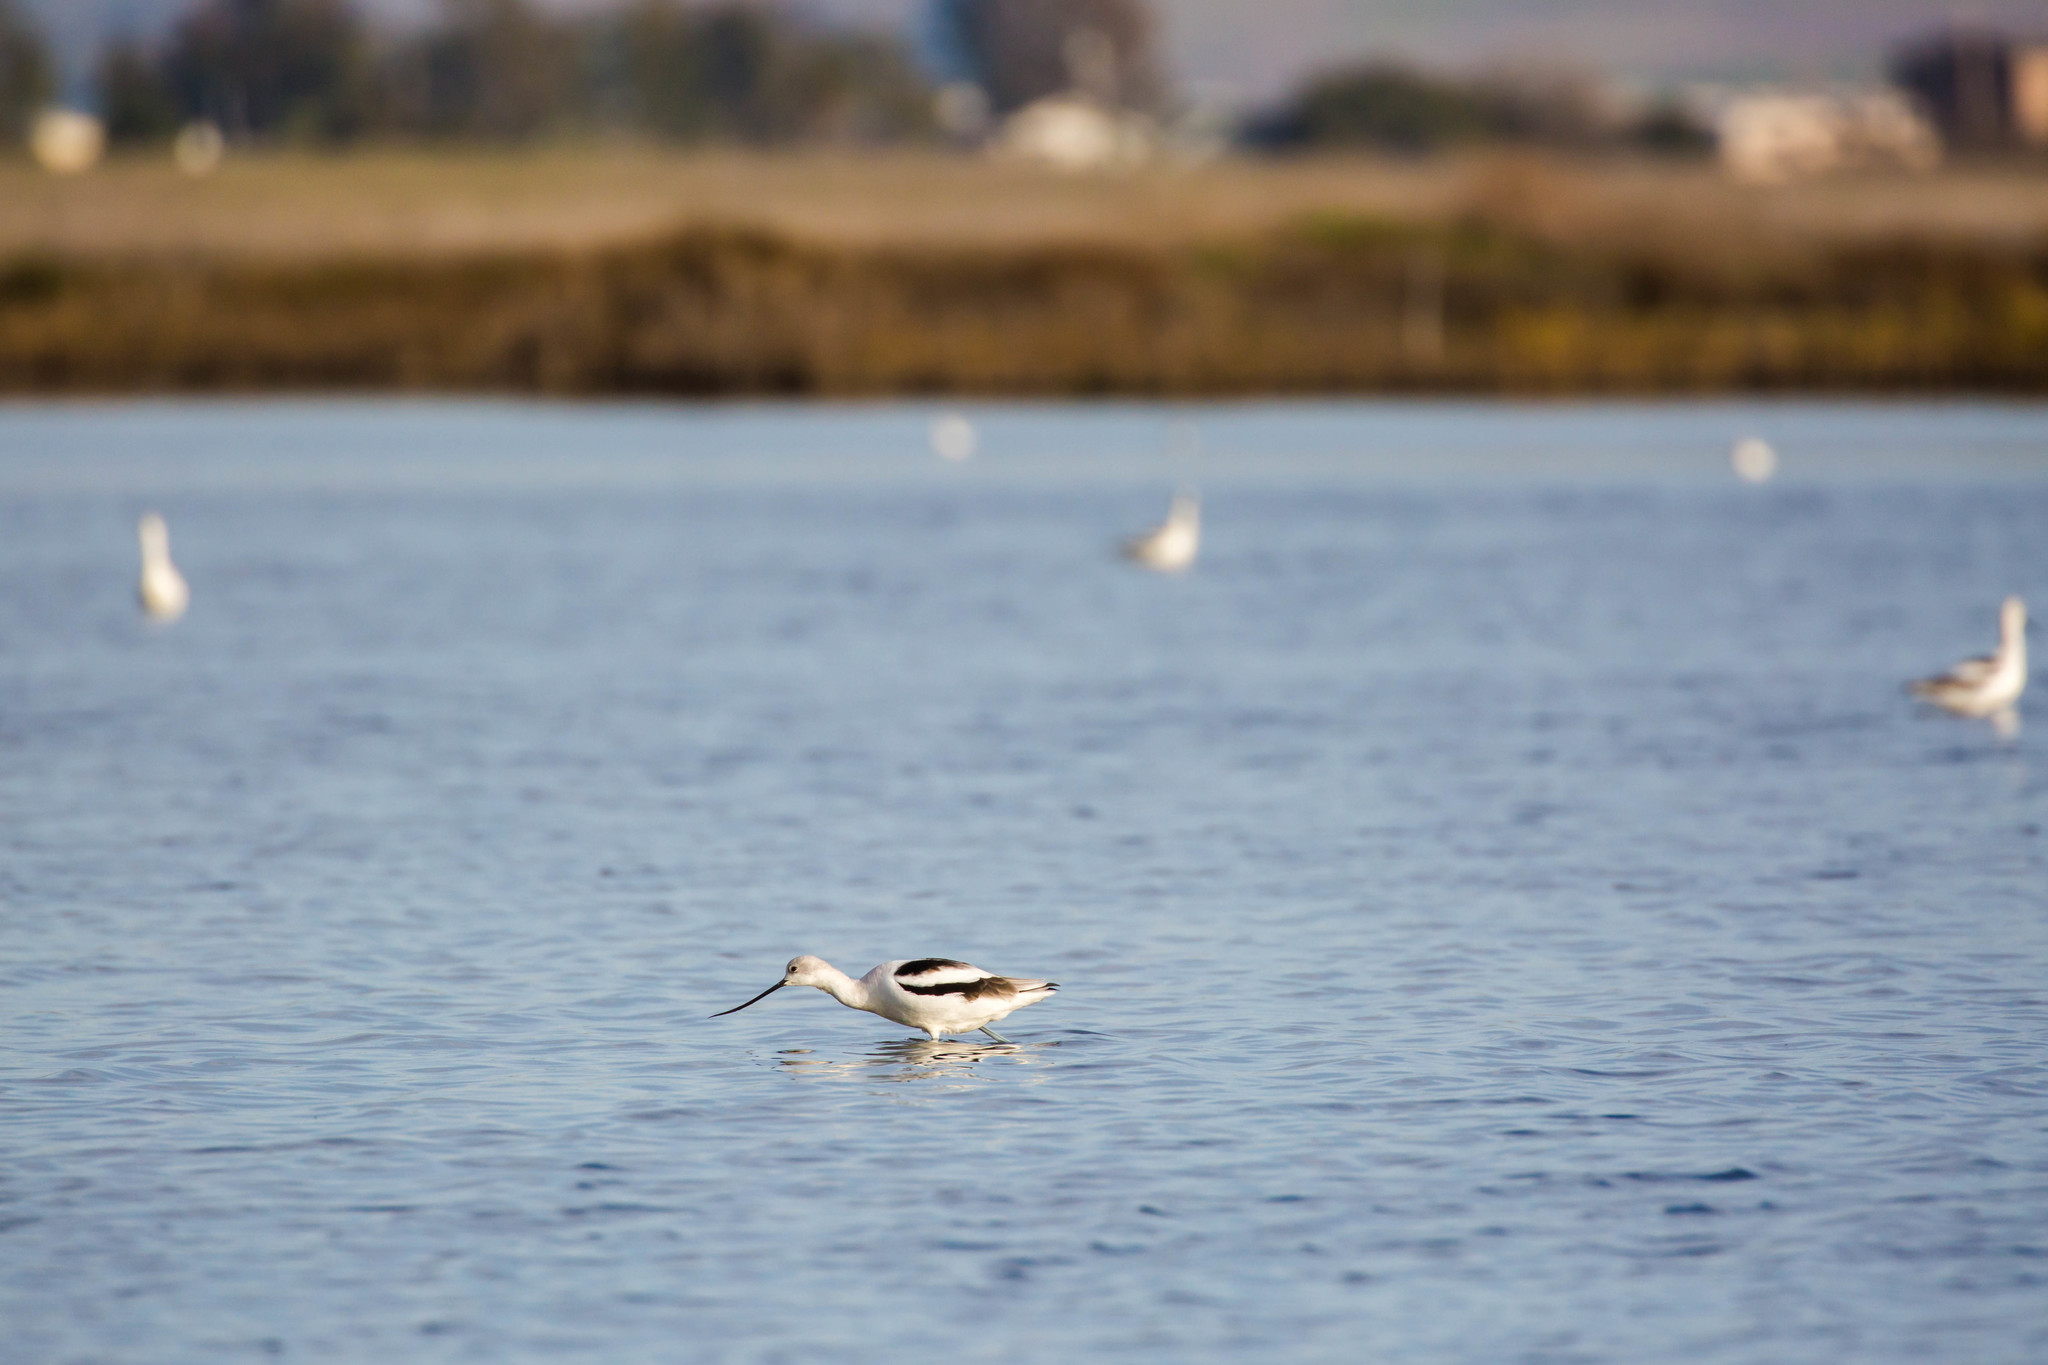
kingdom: Animalia
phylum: Chordata
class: Aves
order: Charadriiformes
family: Recurvirostridae
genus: Recurvirostra
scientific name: Recurvirostra americana
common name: American avocet
